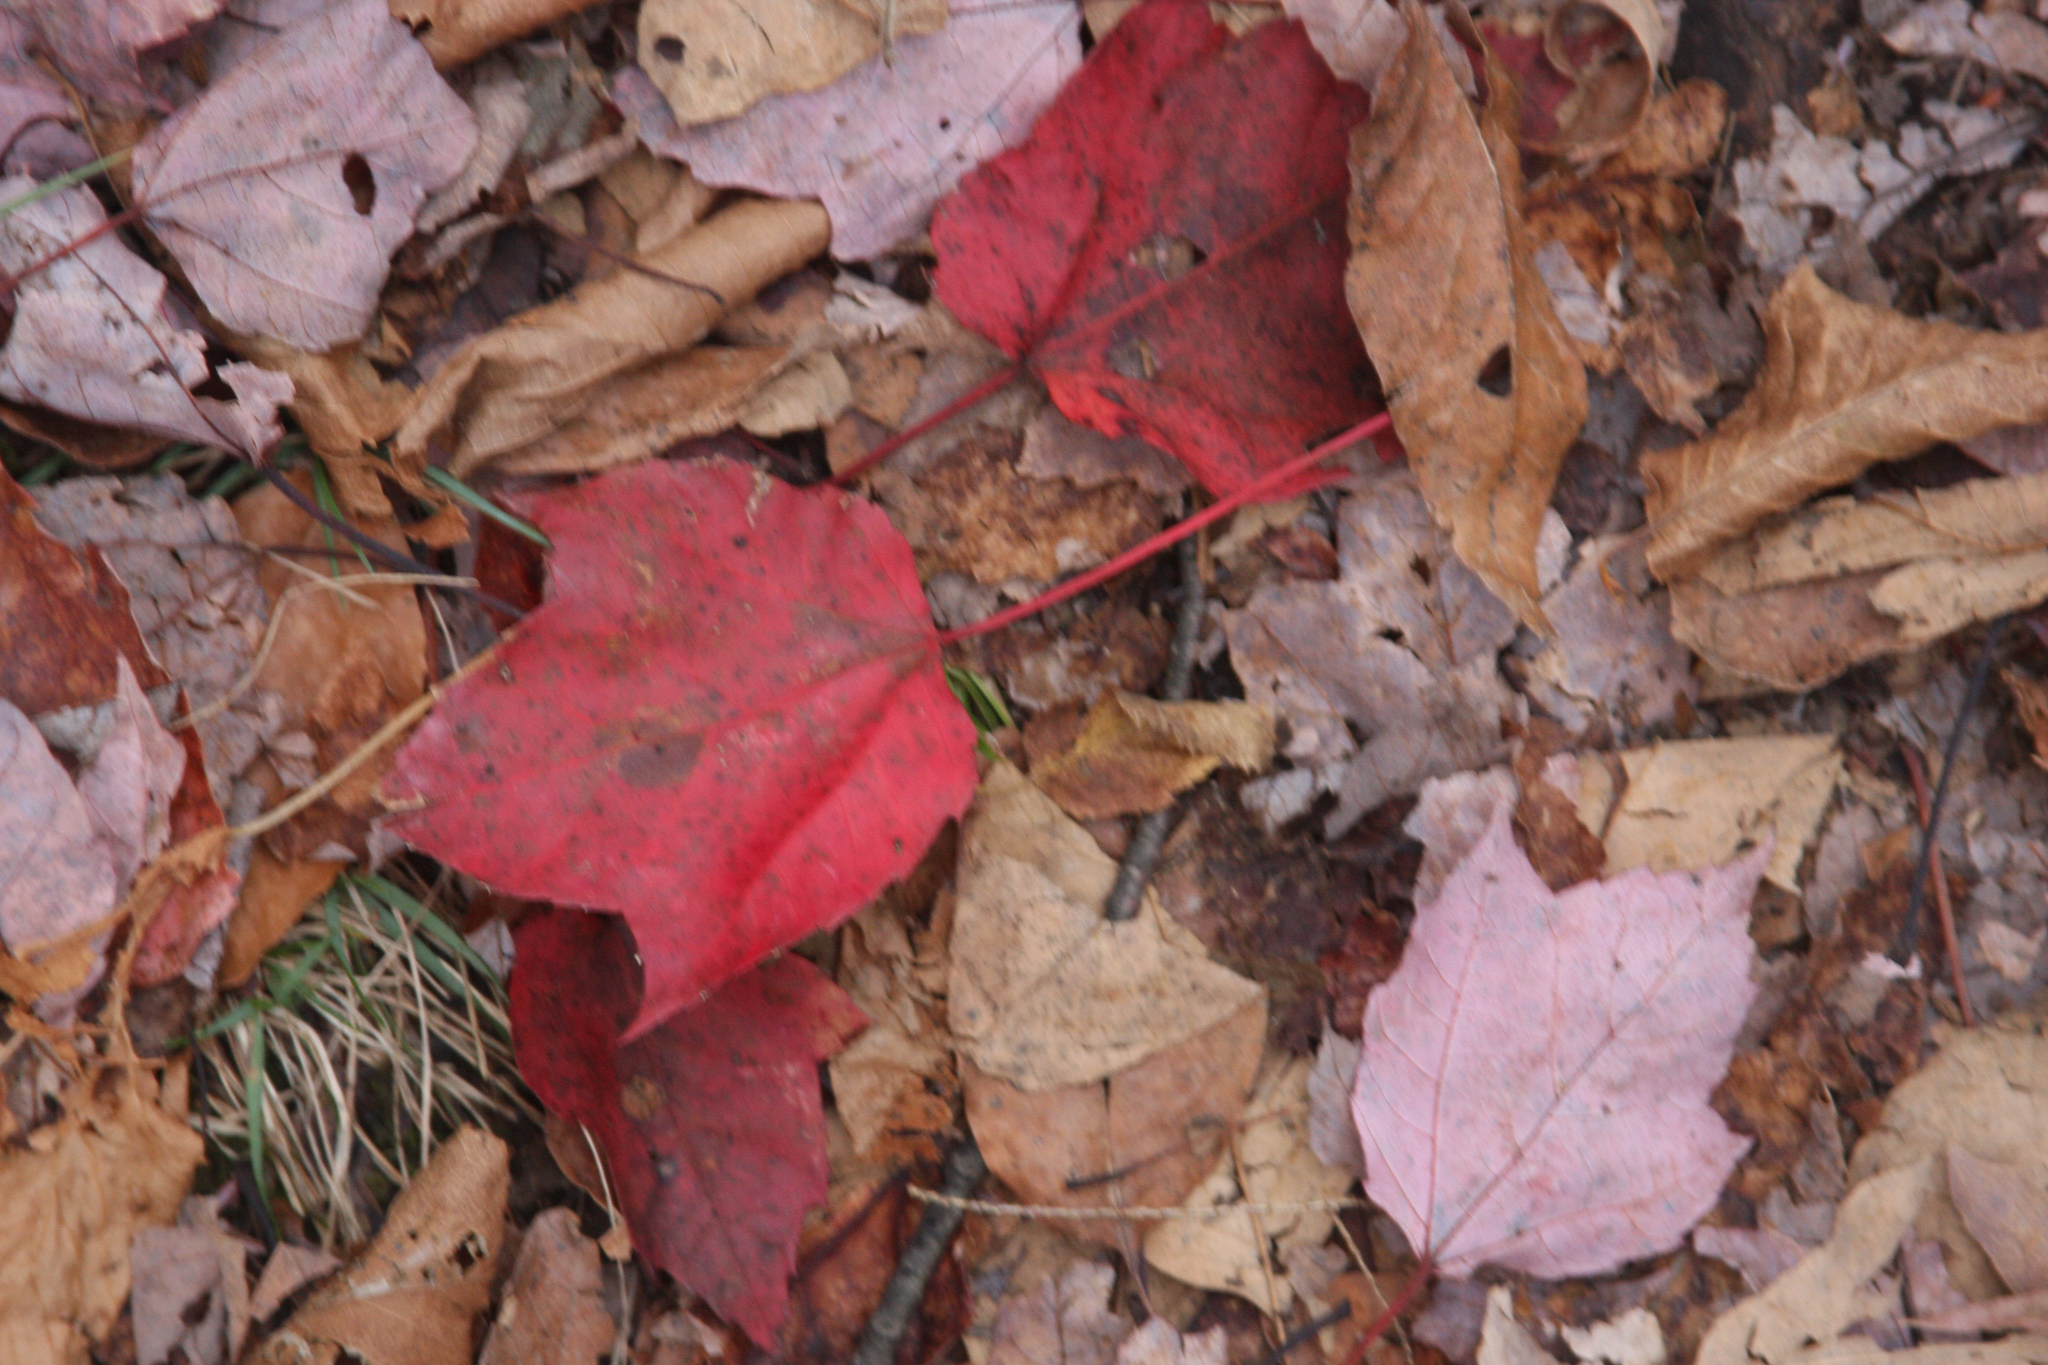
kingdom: Plantae
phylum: Tracheophyta
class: Magnoliopsida
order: Sapindales
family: Sapindaceae
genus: Acer
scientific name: Acer rubrum
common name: Red maple
